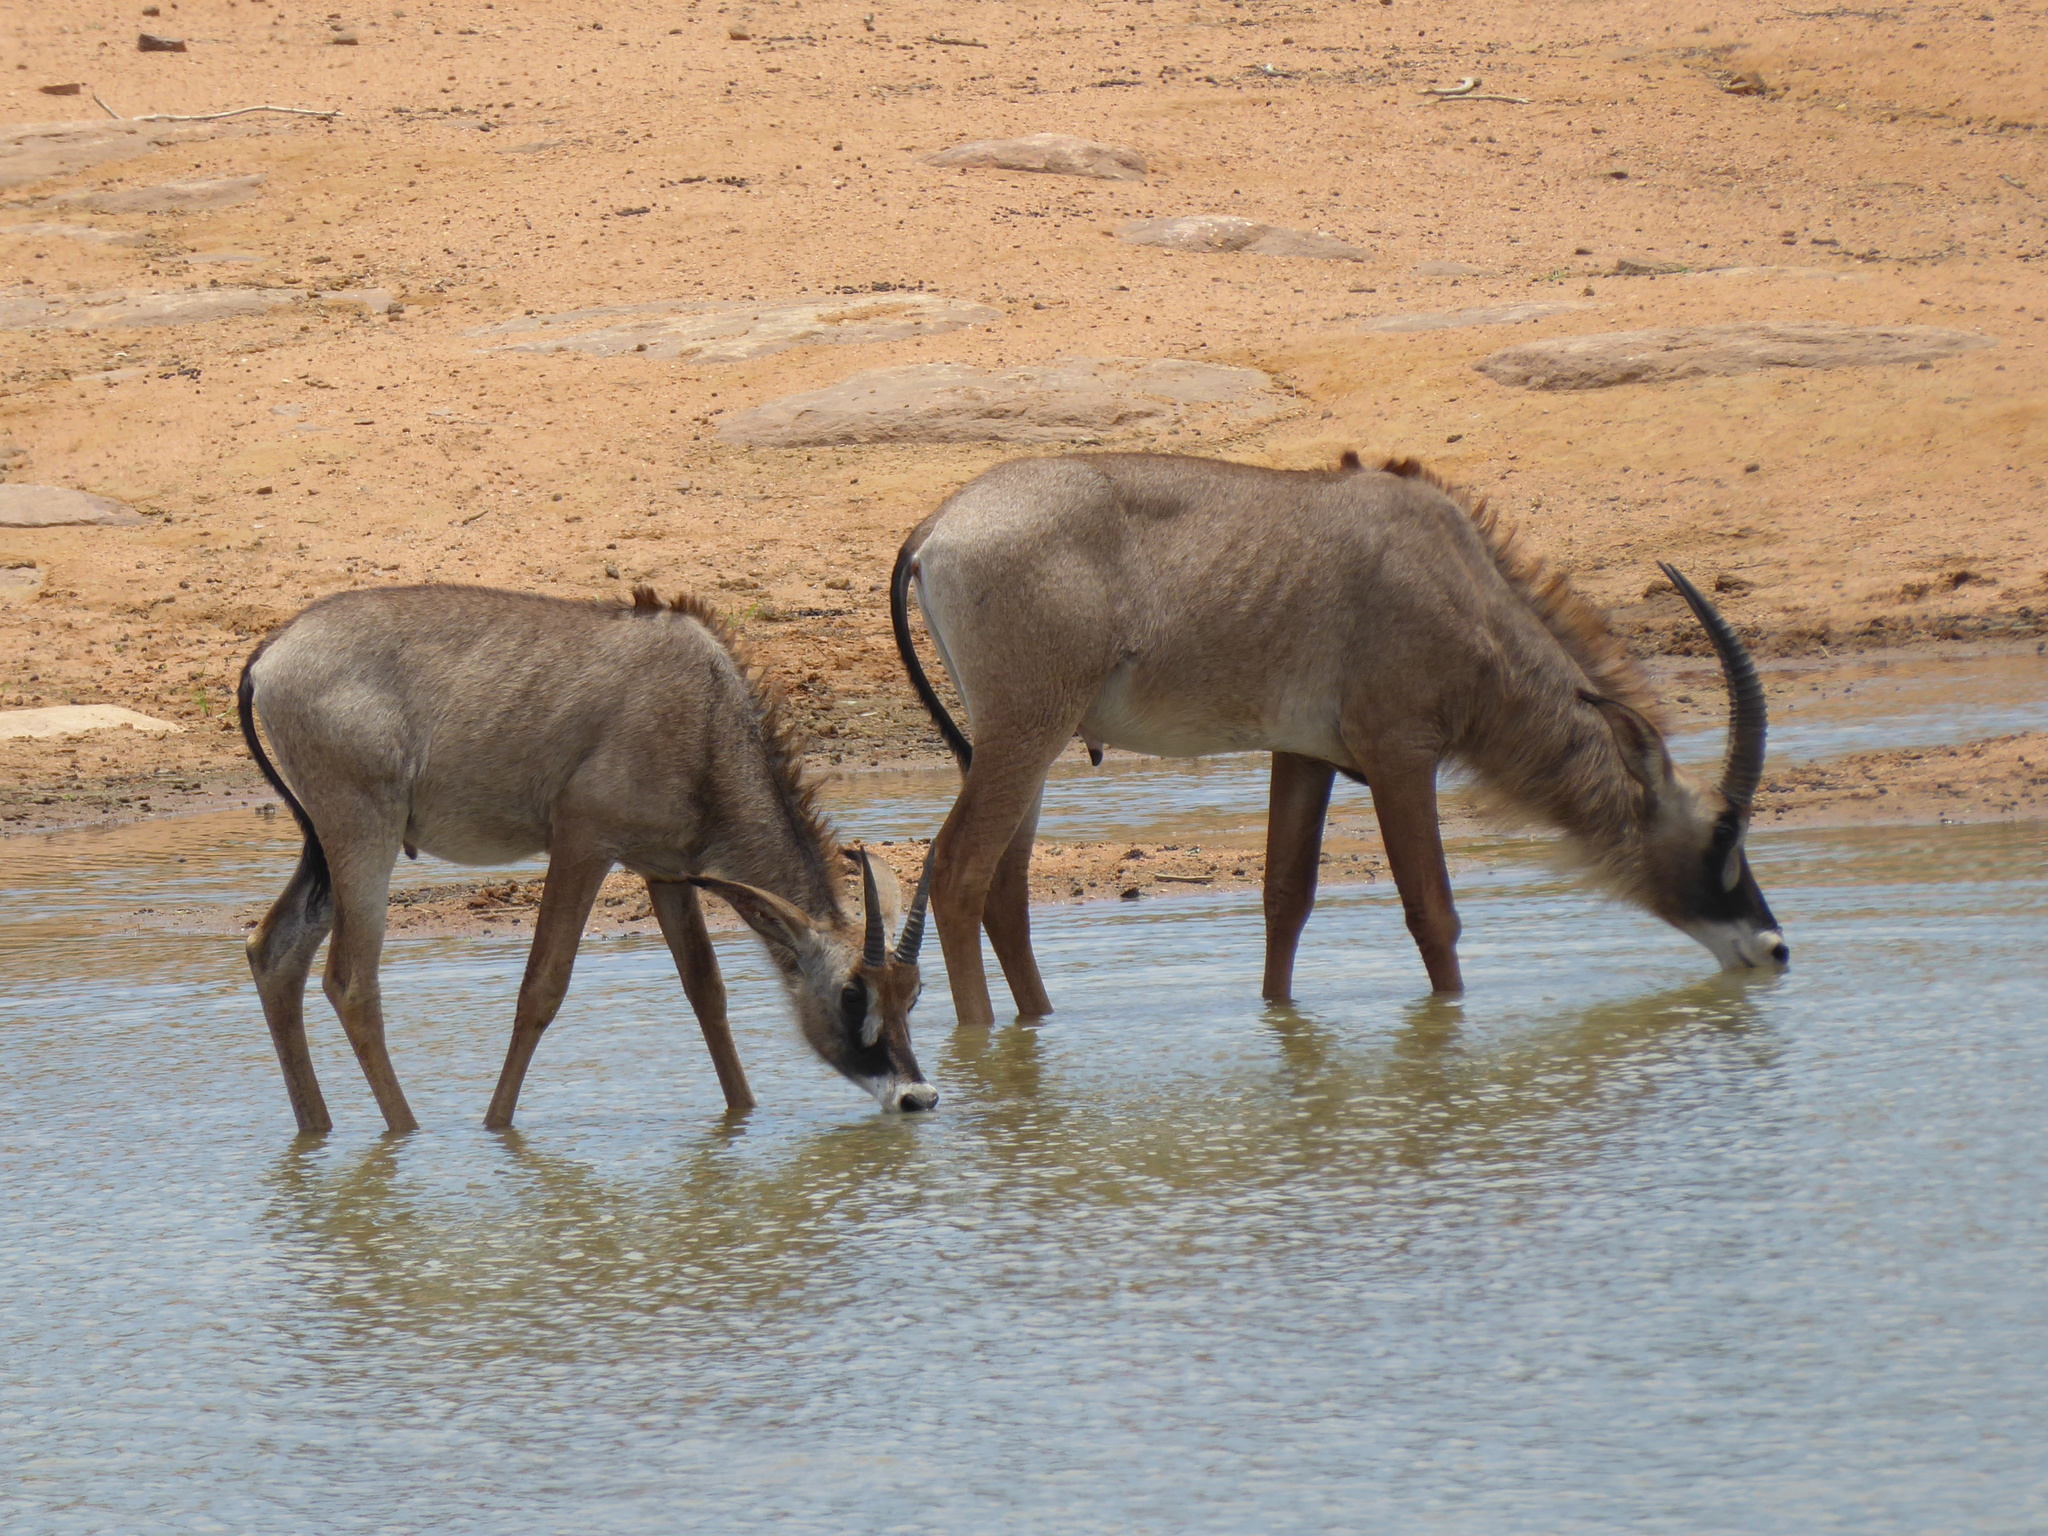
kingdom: Animalia
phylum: Chordata
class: Mammalia
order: Artiodactyla
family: Bovidae
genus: Hippotragus
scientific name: Hippotragus equinus
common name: Roan antelope
